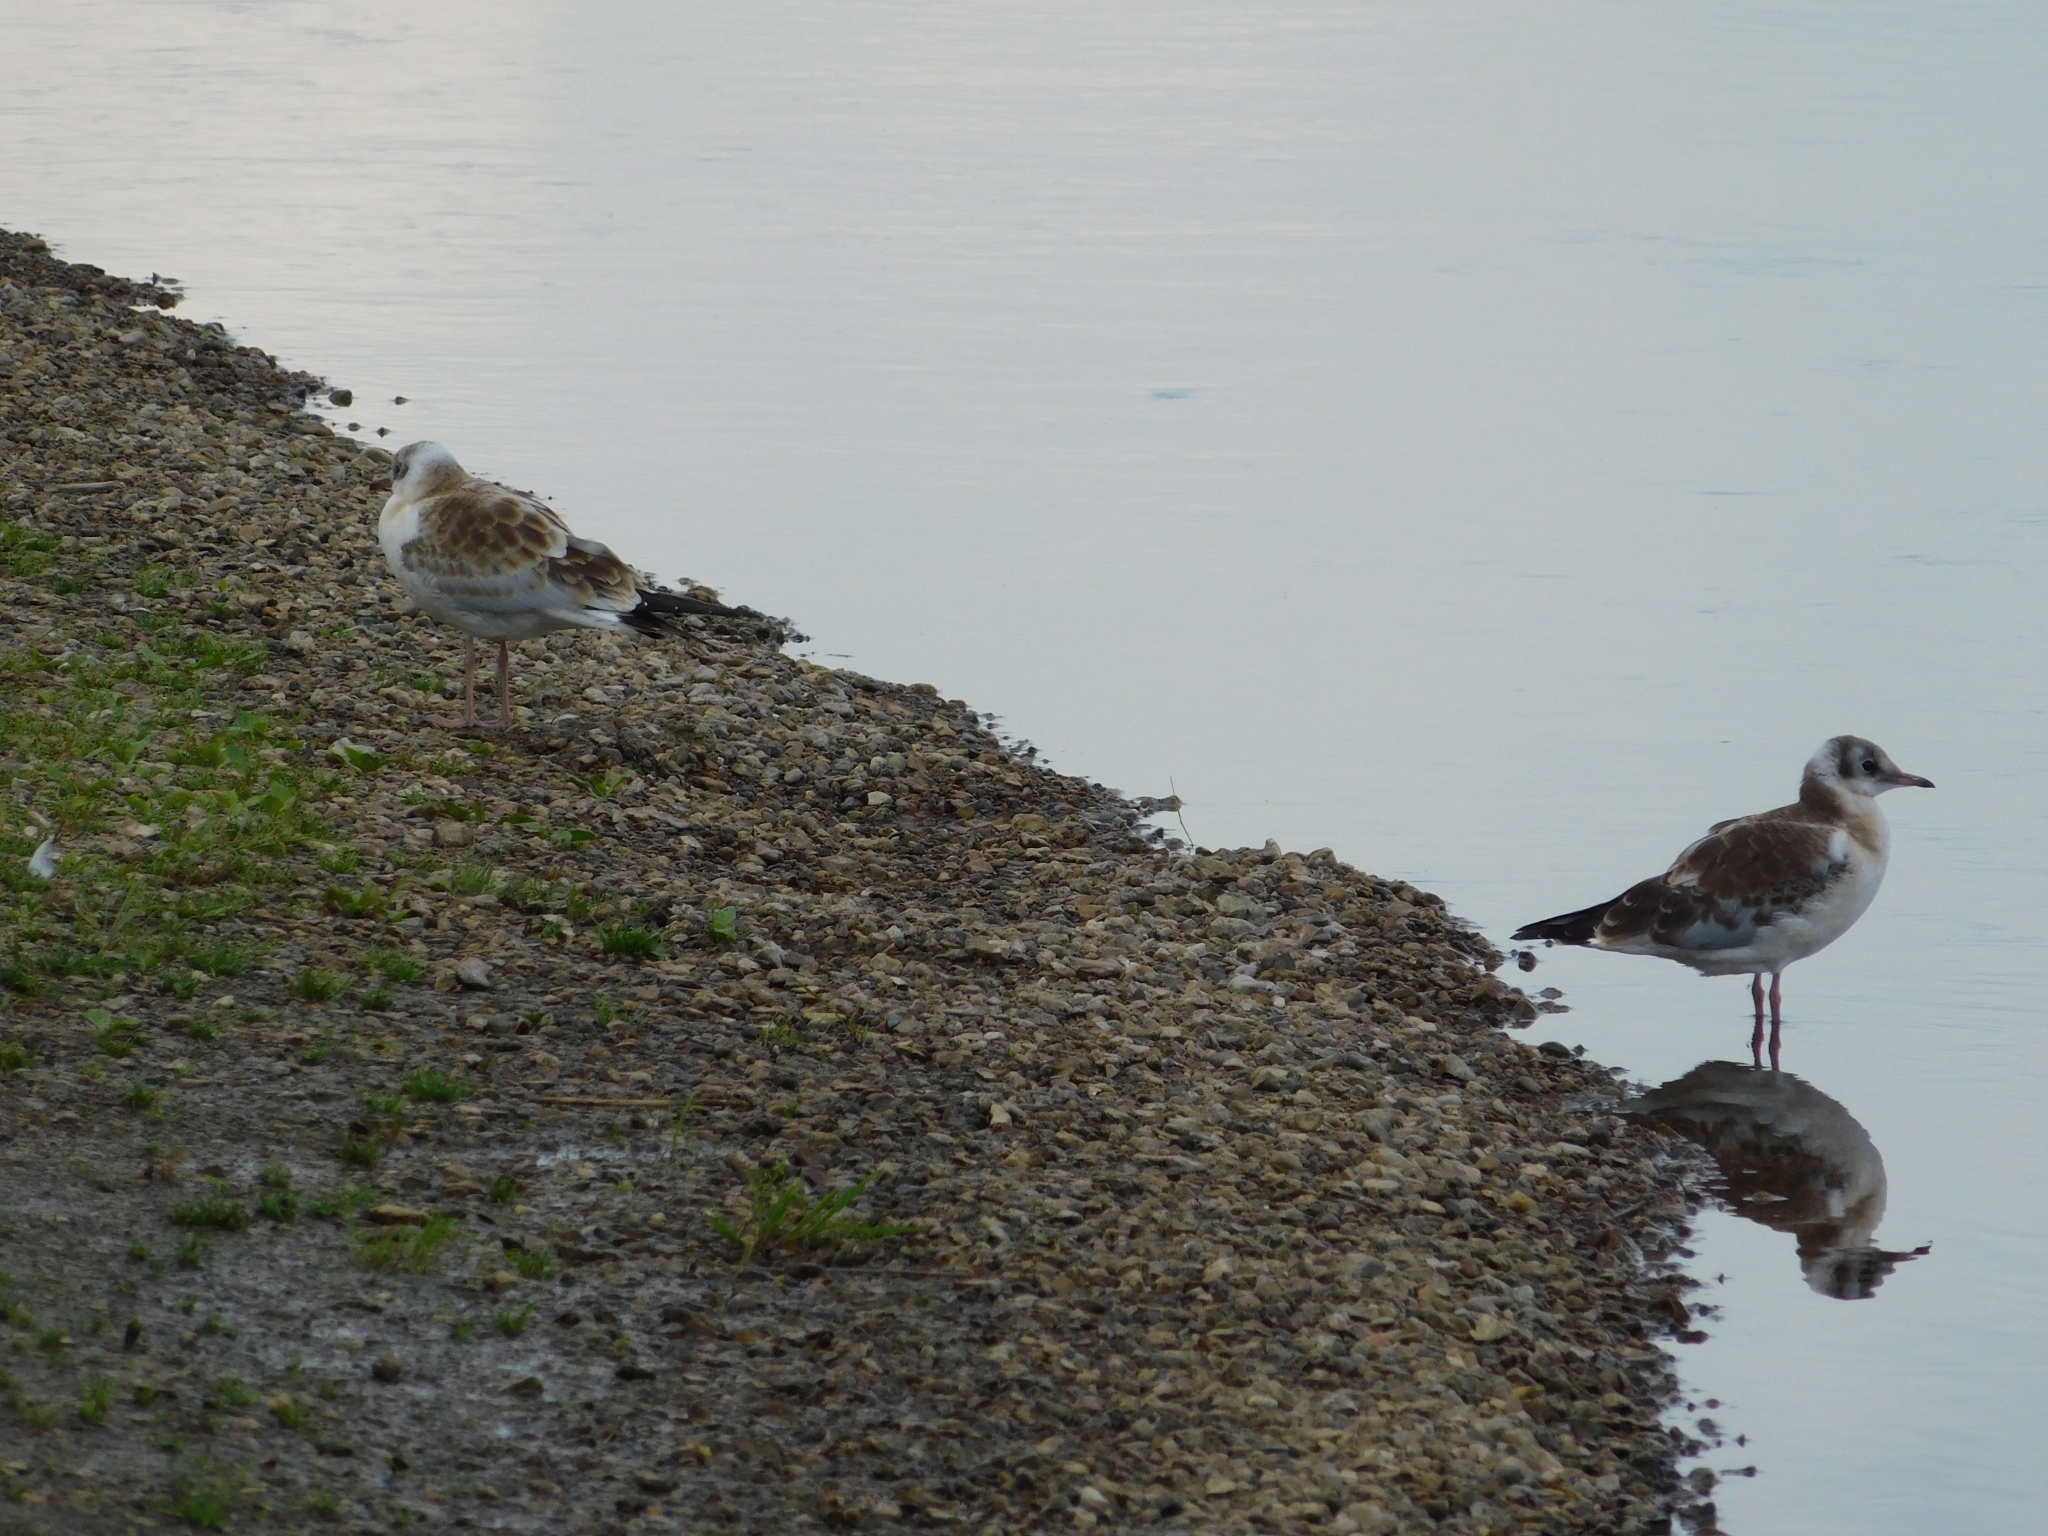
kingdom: Animalia
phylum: Chordata
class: Aves
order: Charadriiformes
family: Laridae
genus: Chroicocephalus
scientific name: Chroicocephalus ridibundus
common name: Black-headed gull
